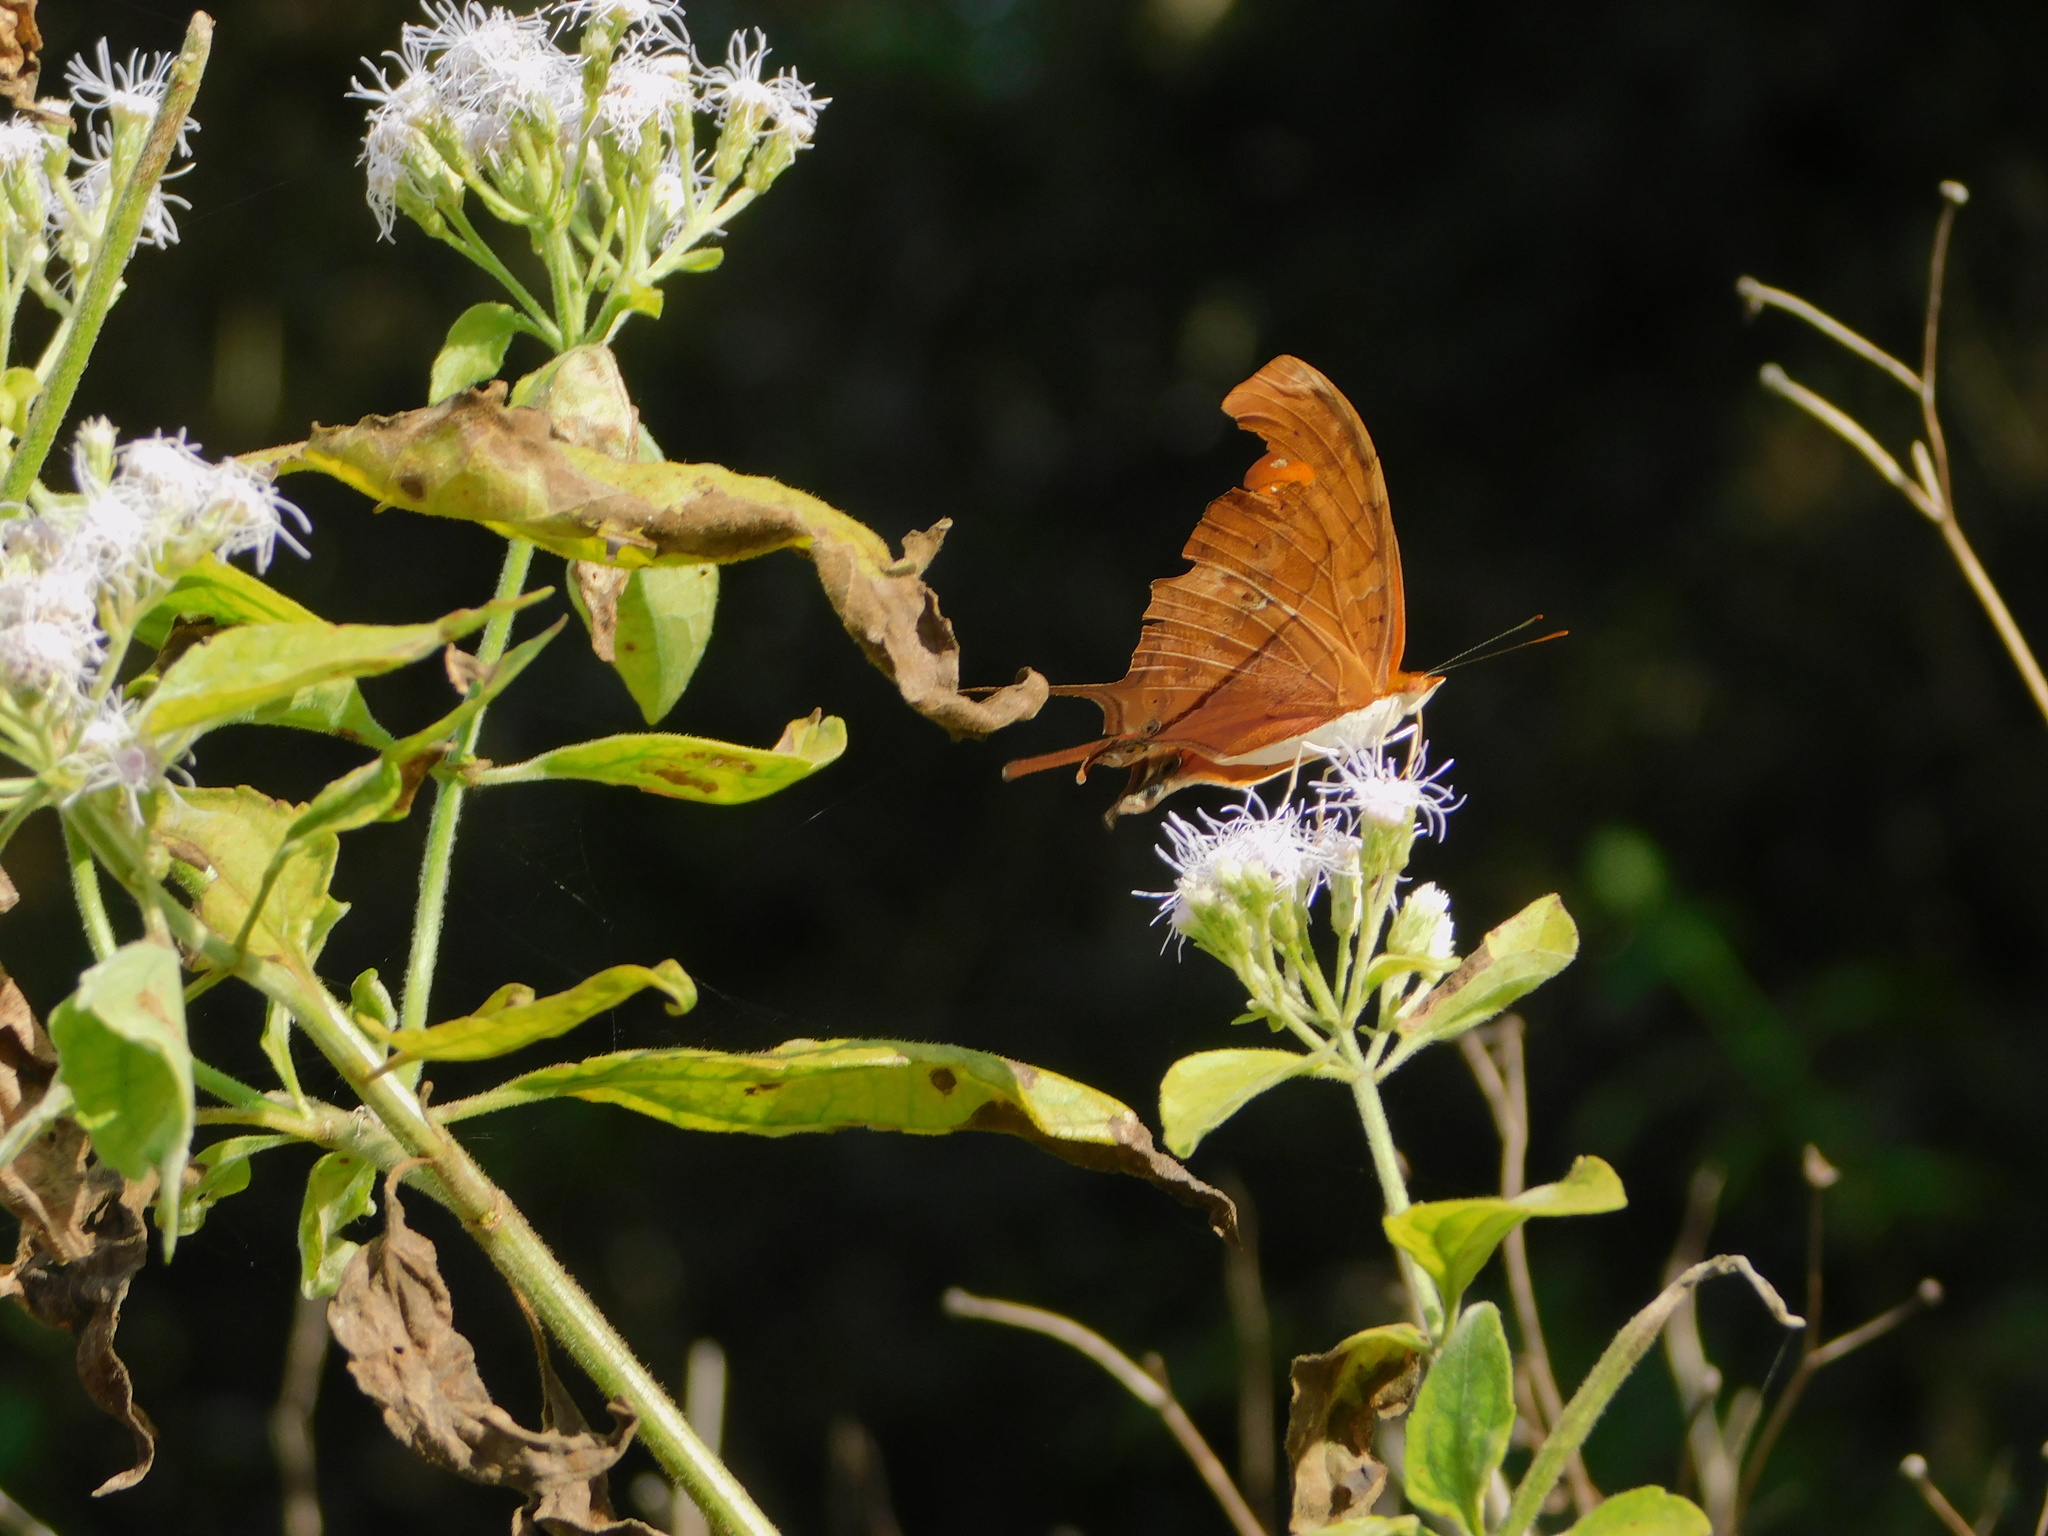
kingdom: Animalia
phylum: Arthropoda
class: Insecta
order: Lepidoptera
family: Nymphalidae
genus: Marpesia
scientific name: Marpesia petreus
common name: Red dagger wing
